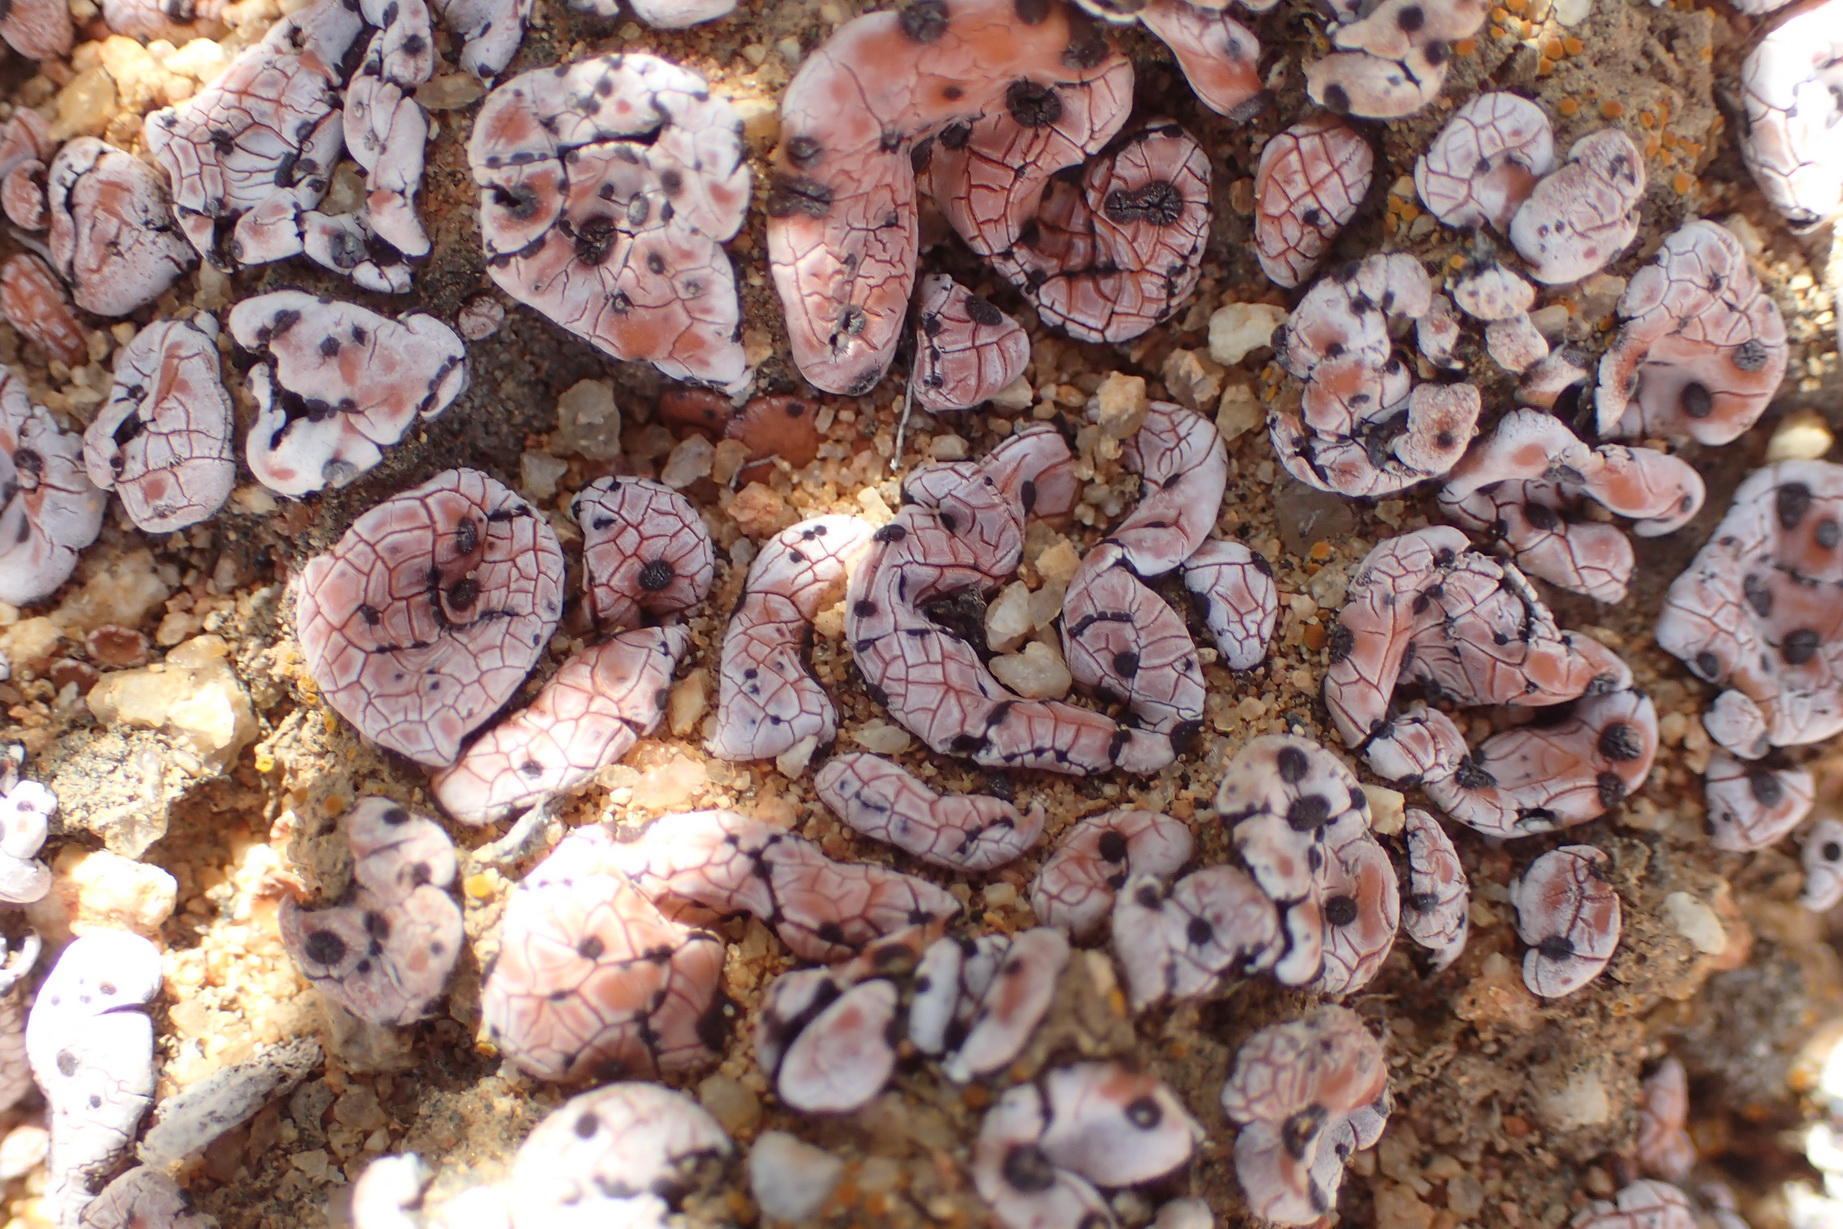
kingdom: Fungi
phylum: Ascomycota
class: Lecanoromycetes
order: Lecanorales
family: Psoraceae
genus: Psora
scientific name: Psora crenata
